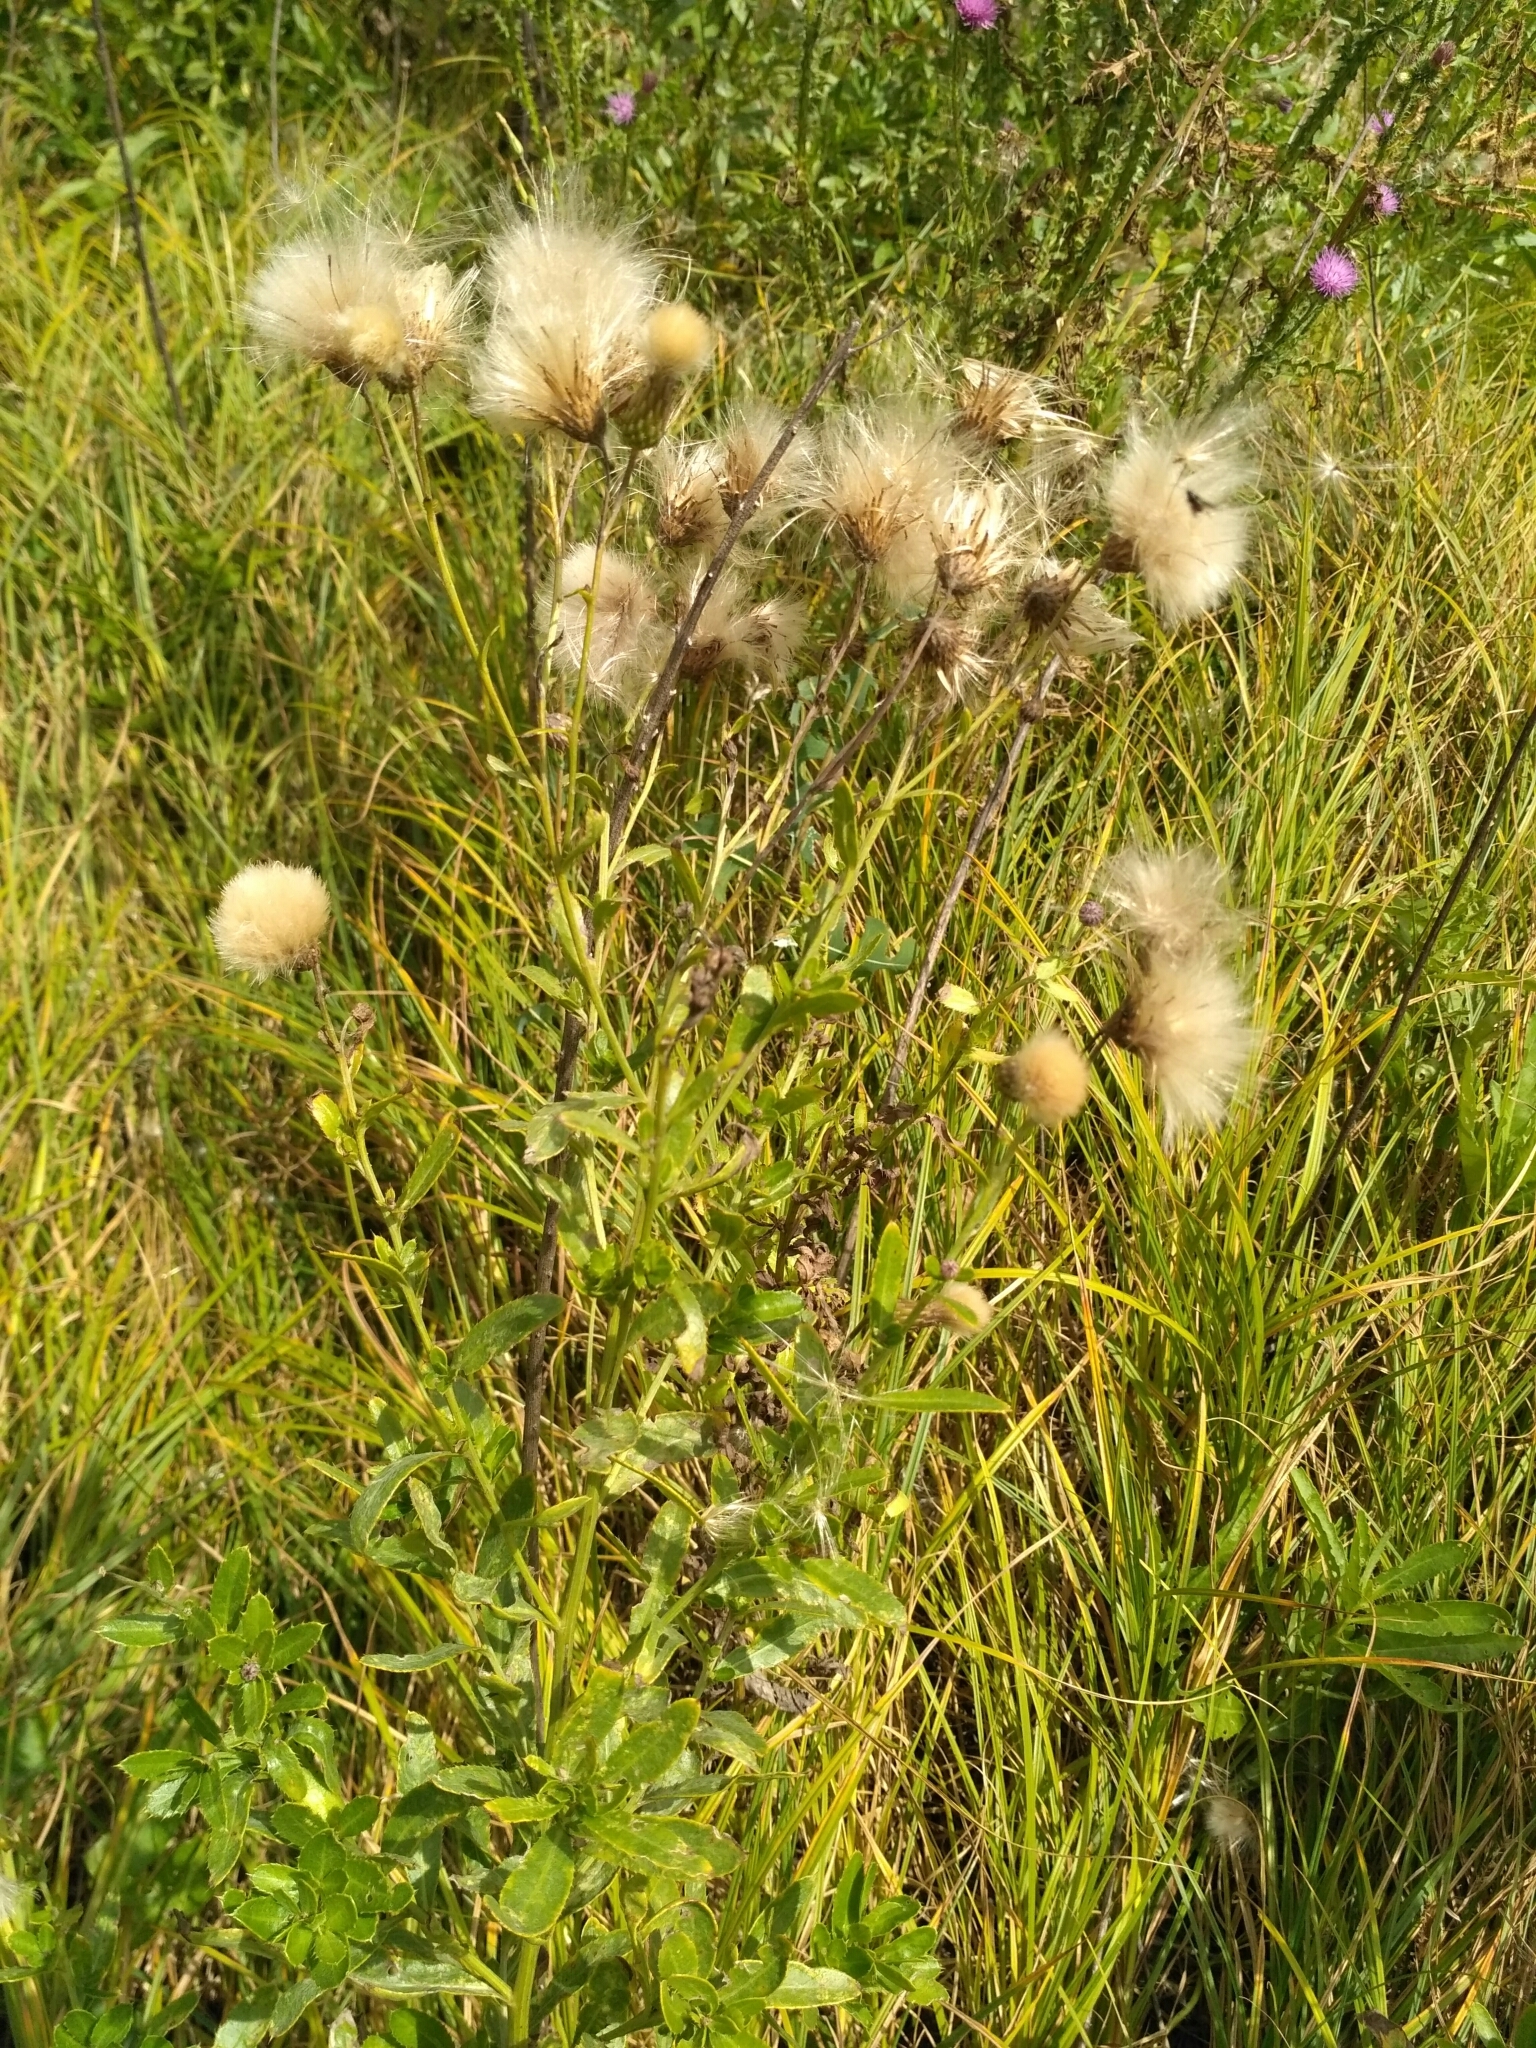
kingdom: Plantae
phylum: Tracheophyta
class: Magnoliopsida
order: Asterales
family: Asteraceae
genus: Cirsium
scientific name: Cirsium arvense
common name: Creeping thistle
